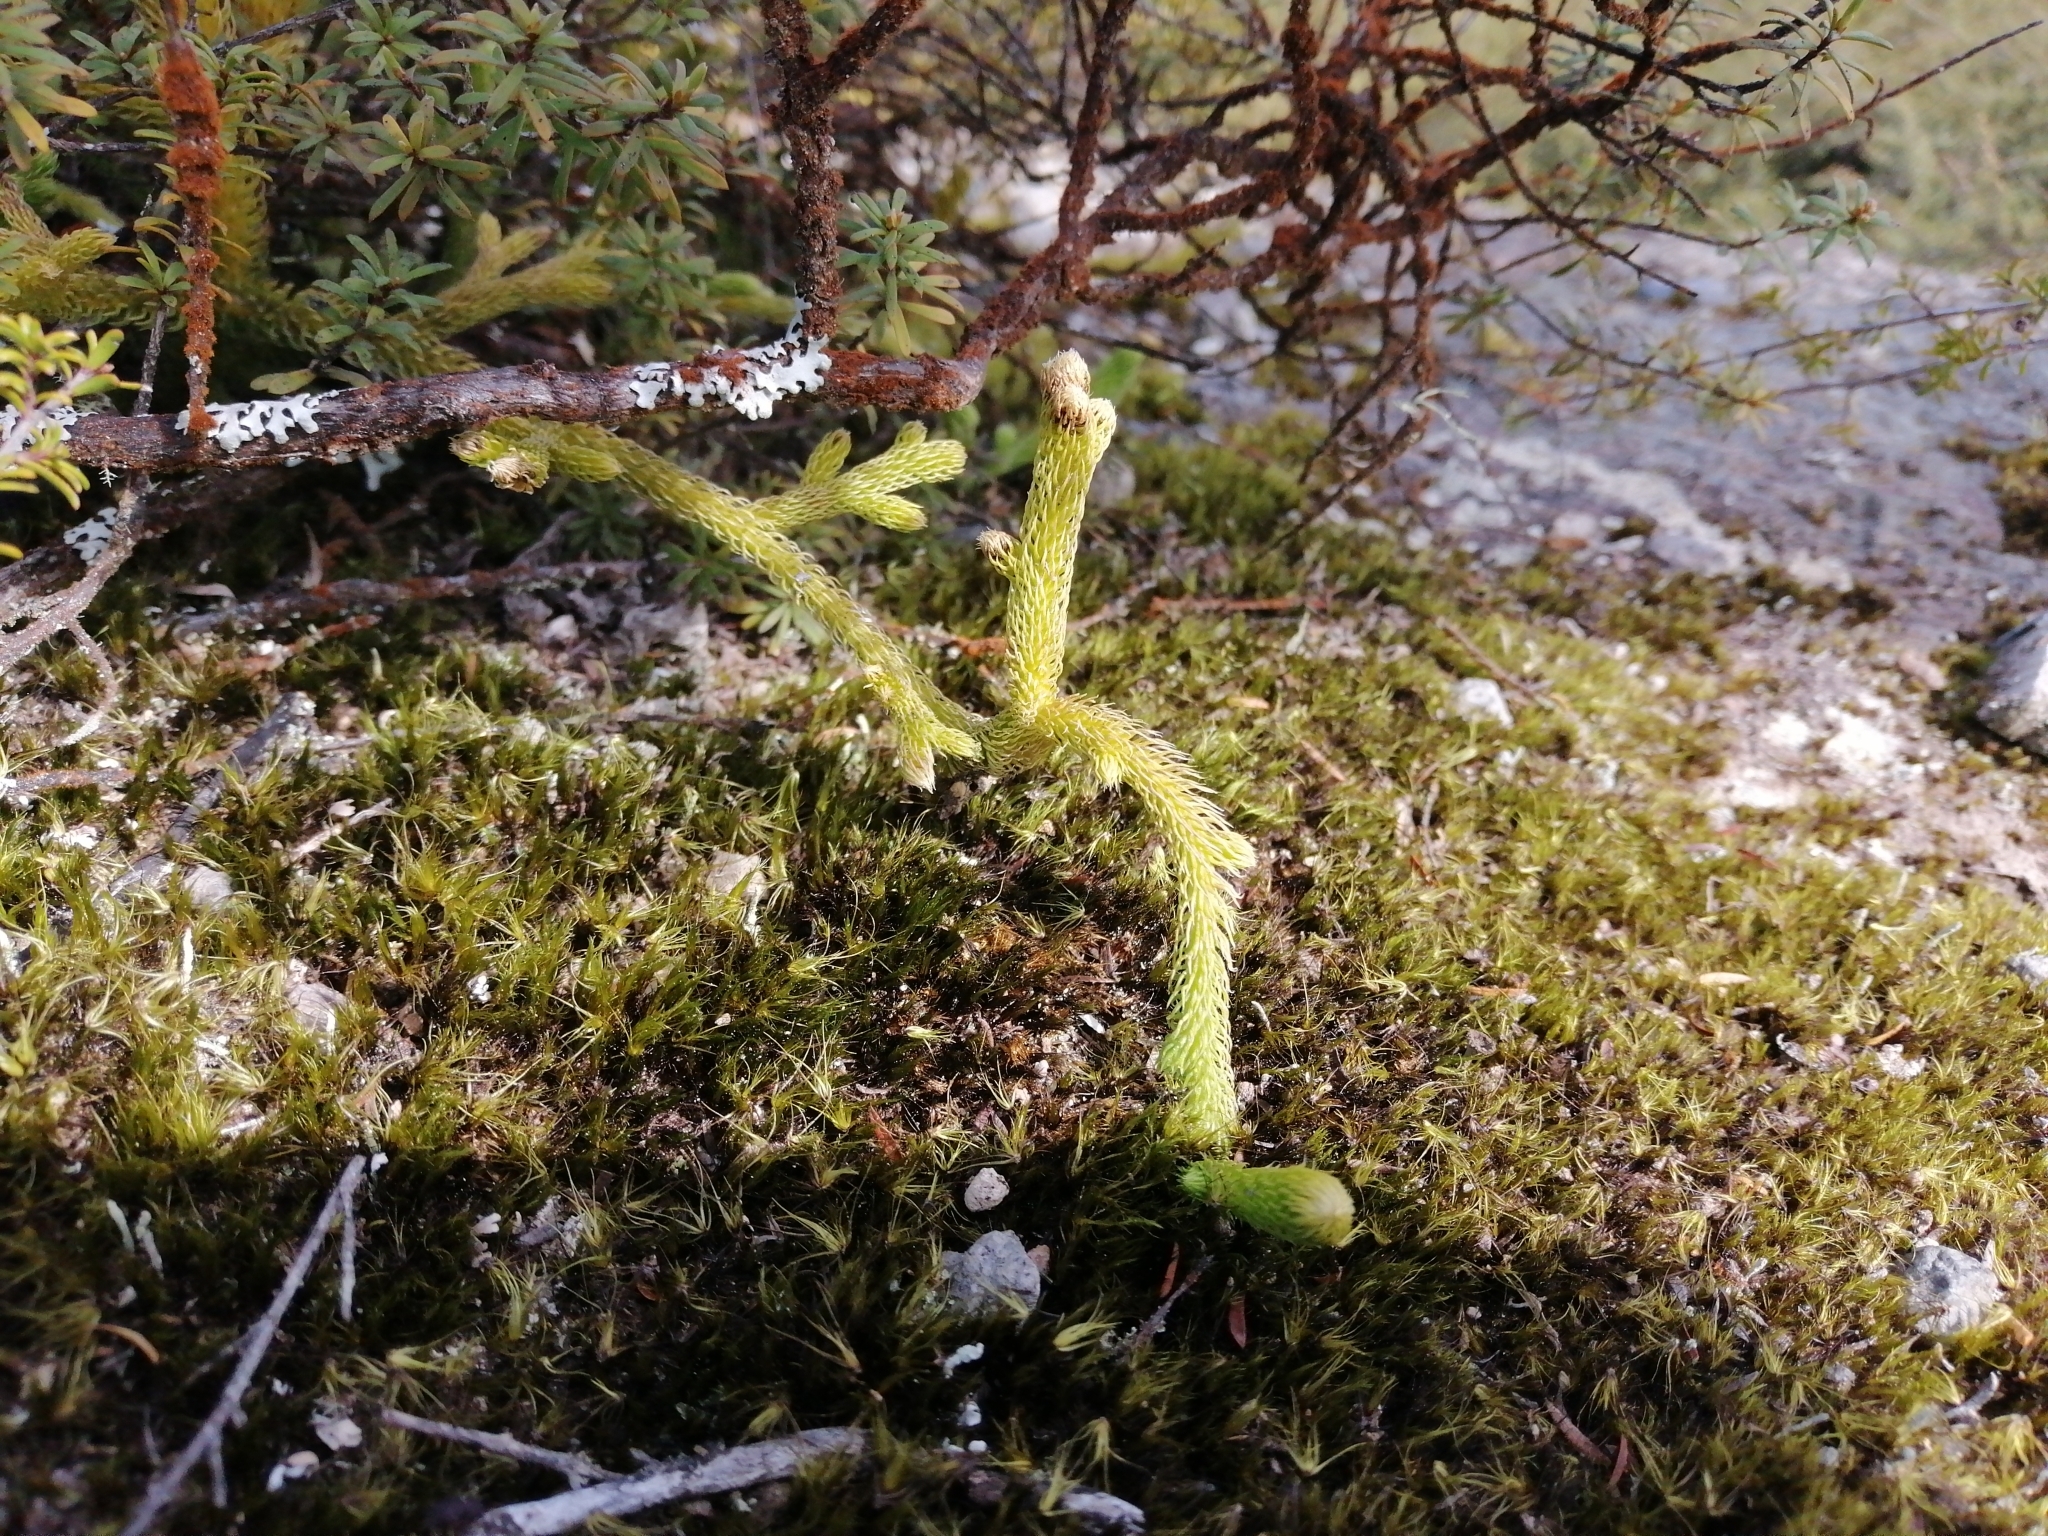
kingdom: Plantae
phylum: Tracheophyta
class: Lycopodiopsida
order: Lycopodiales
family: Lycopodiaceae
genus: Palhinhaea
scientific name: Palhinhaea cernua
